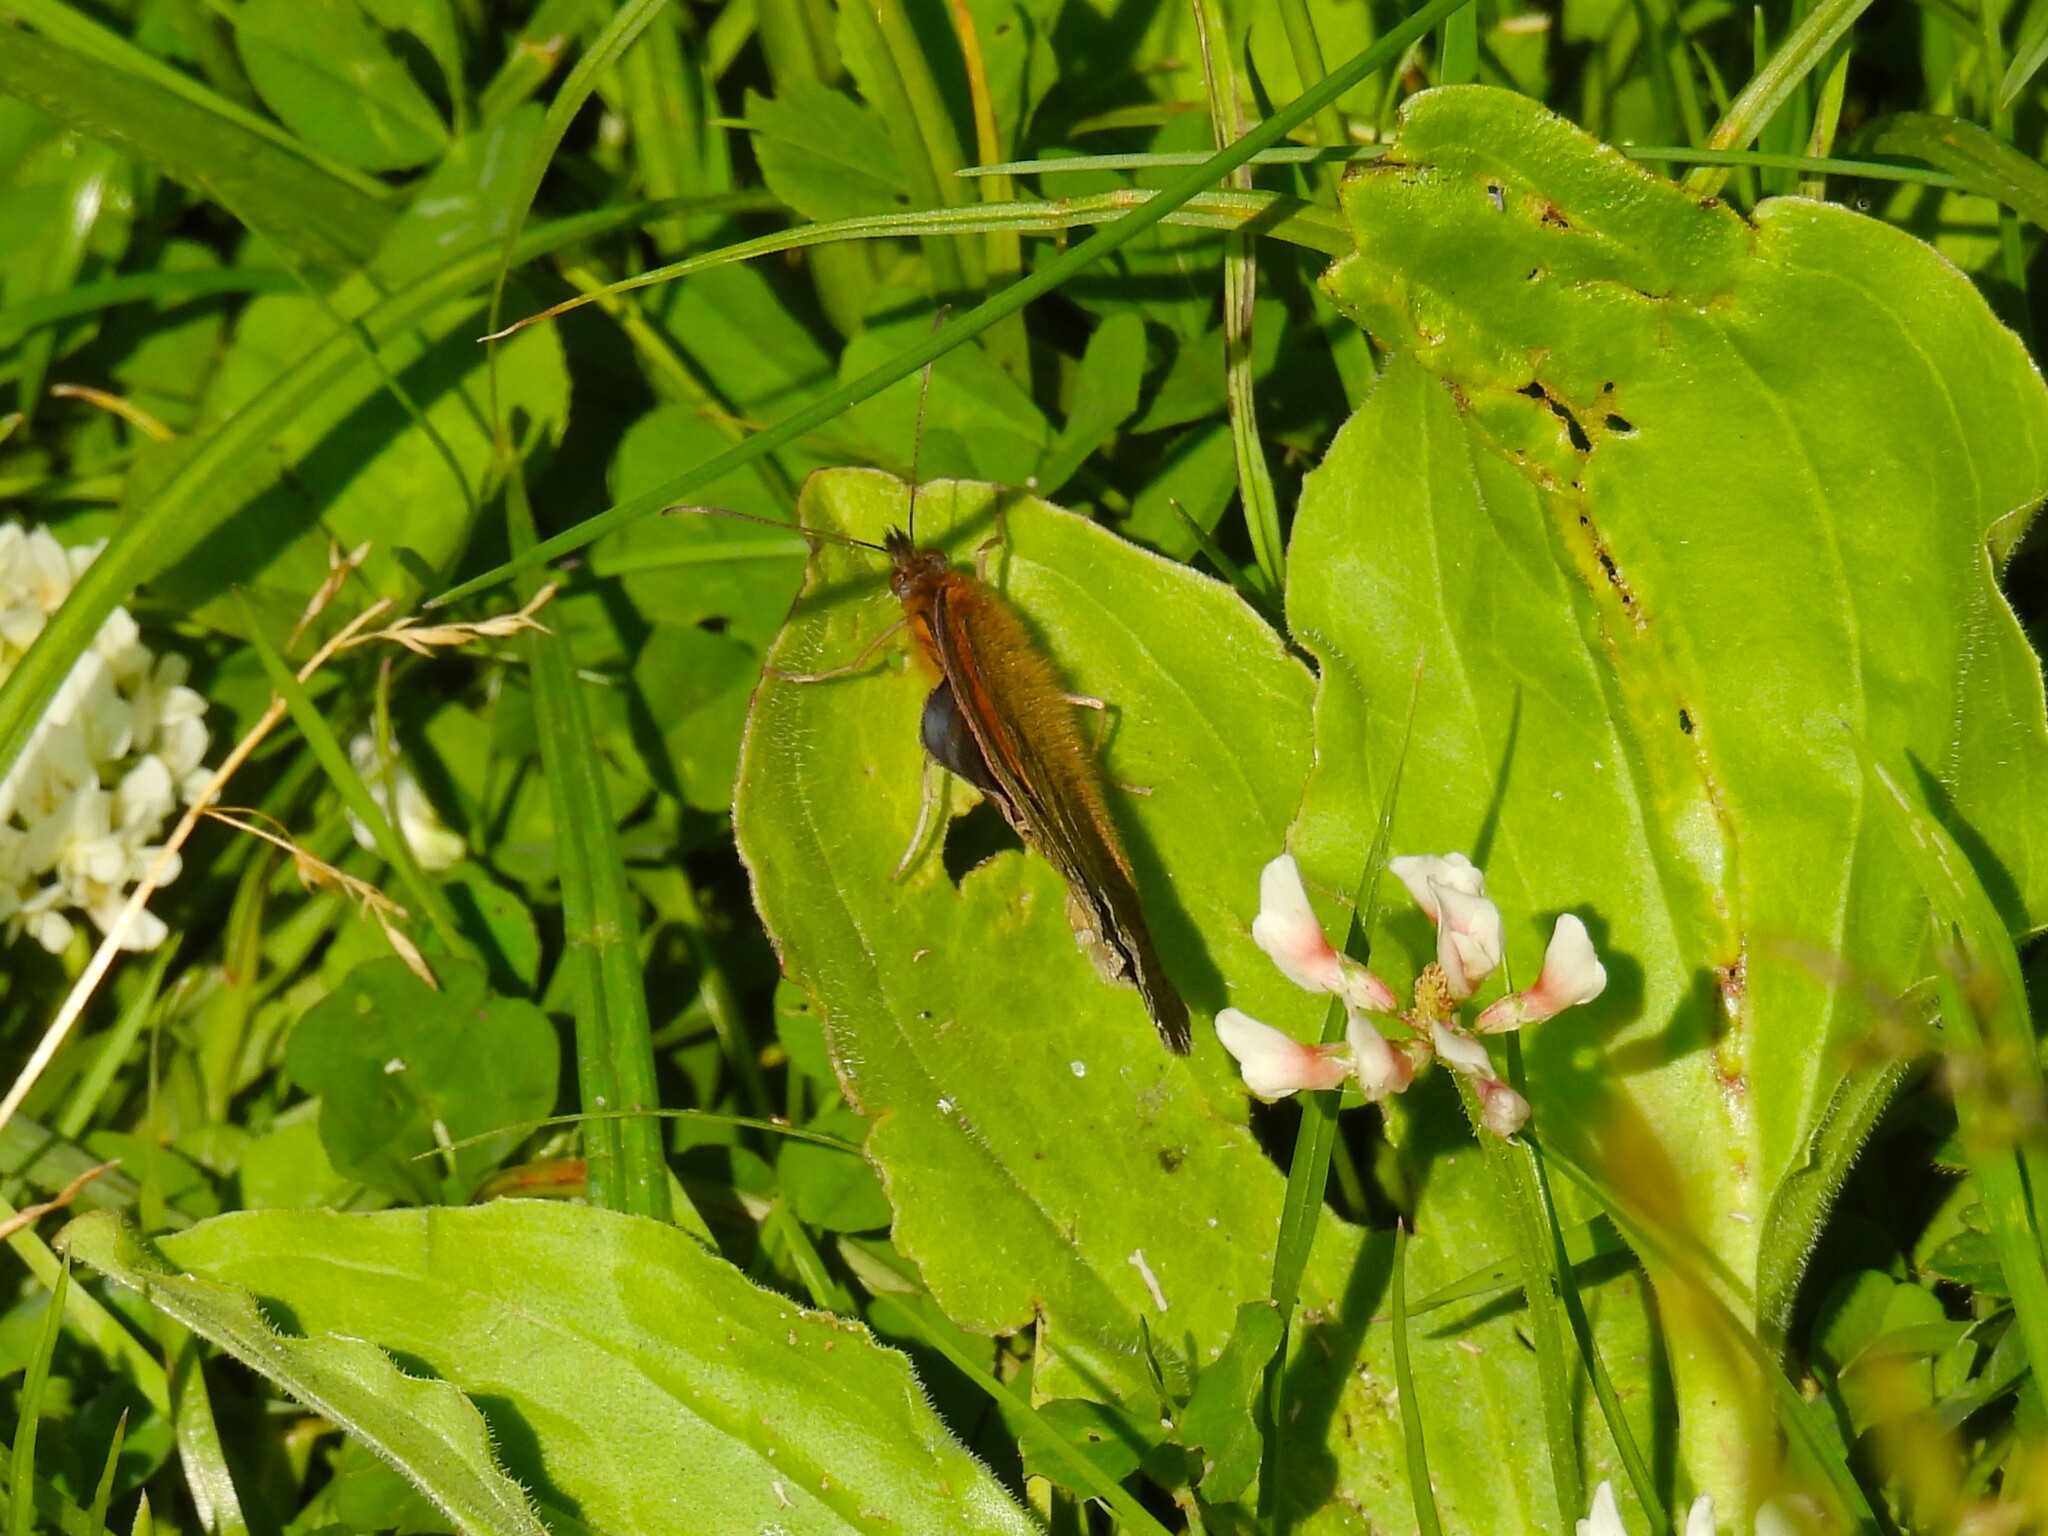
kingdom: Animalia
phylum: Arthropoda
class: Insecta
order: Lepidoptera
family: Nymphalidae
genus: Maniola
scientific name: Maniola jurtina
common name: Meadow brown
